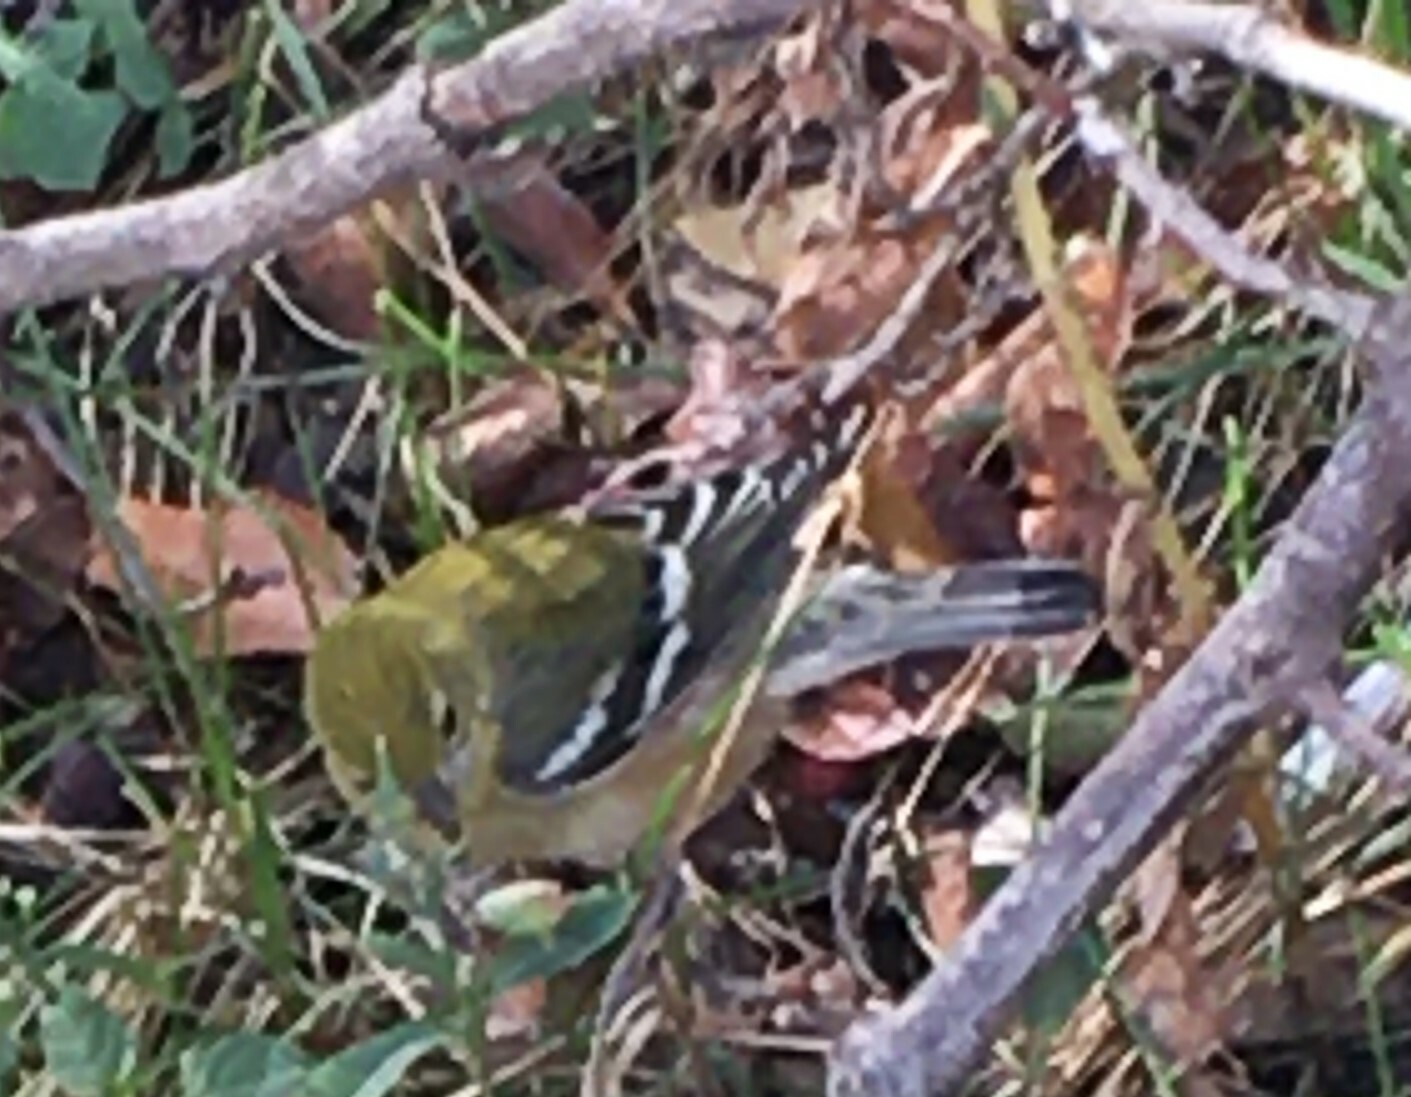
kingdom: Animalia
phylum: Chordata
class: Aves
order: Passeriformes
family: Parulidae
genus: Setophaga
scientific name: Setophaga castanea
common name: Bay-breasted warbler
